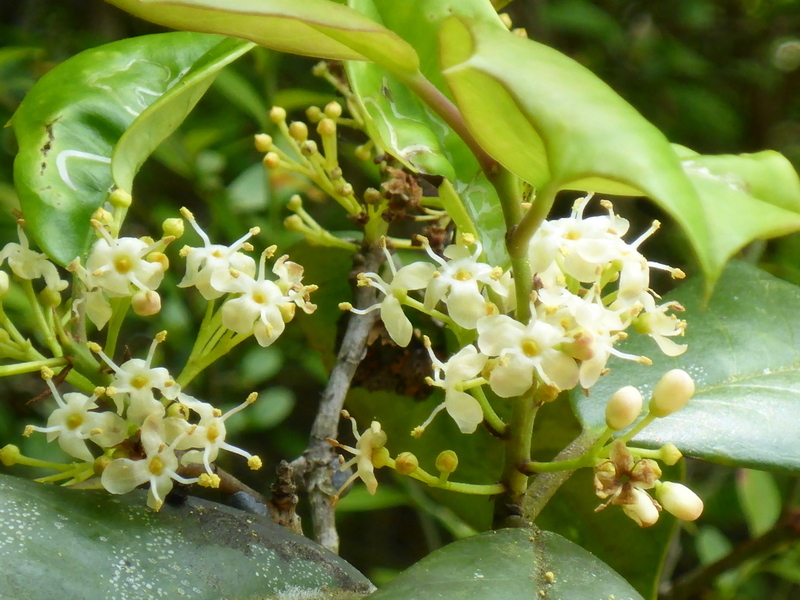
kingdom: Plantae
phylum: Tracheophyta
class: Magnoliopsida
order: Aquifoliales
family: Aquifoliaceae
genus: Ilex
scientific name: Ilex opaca
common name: American holly
